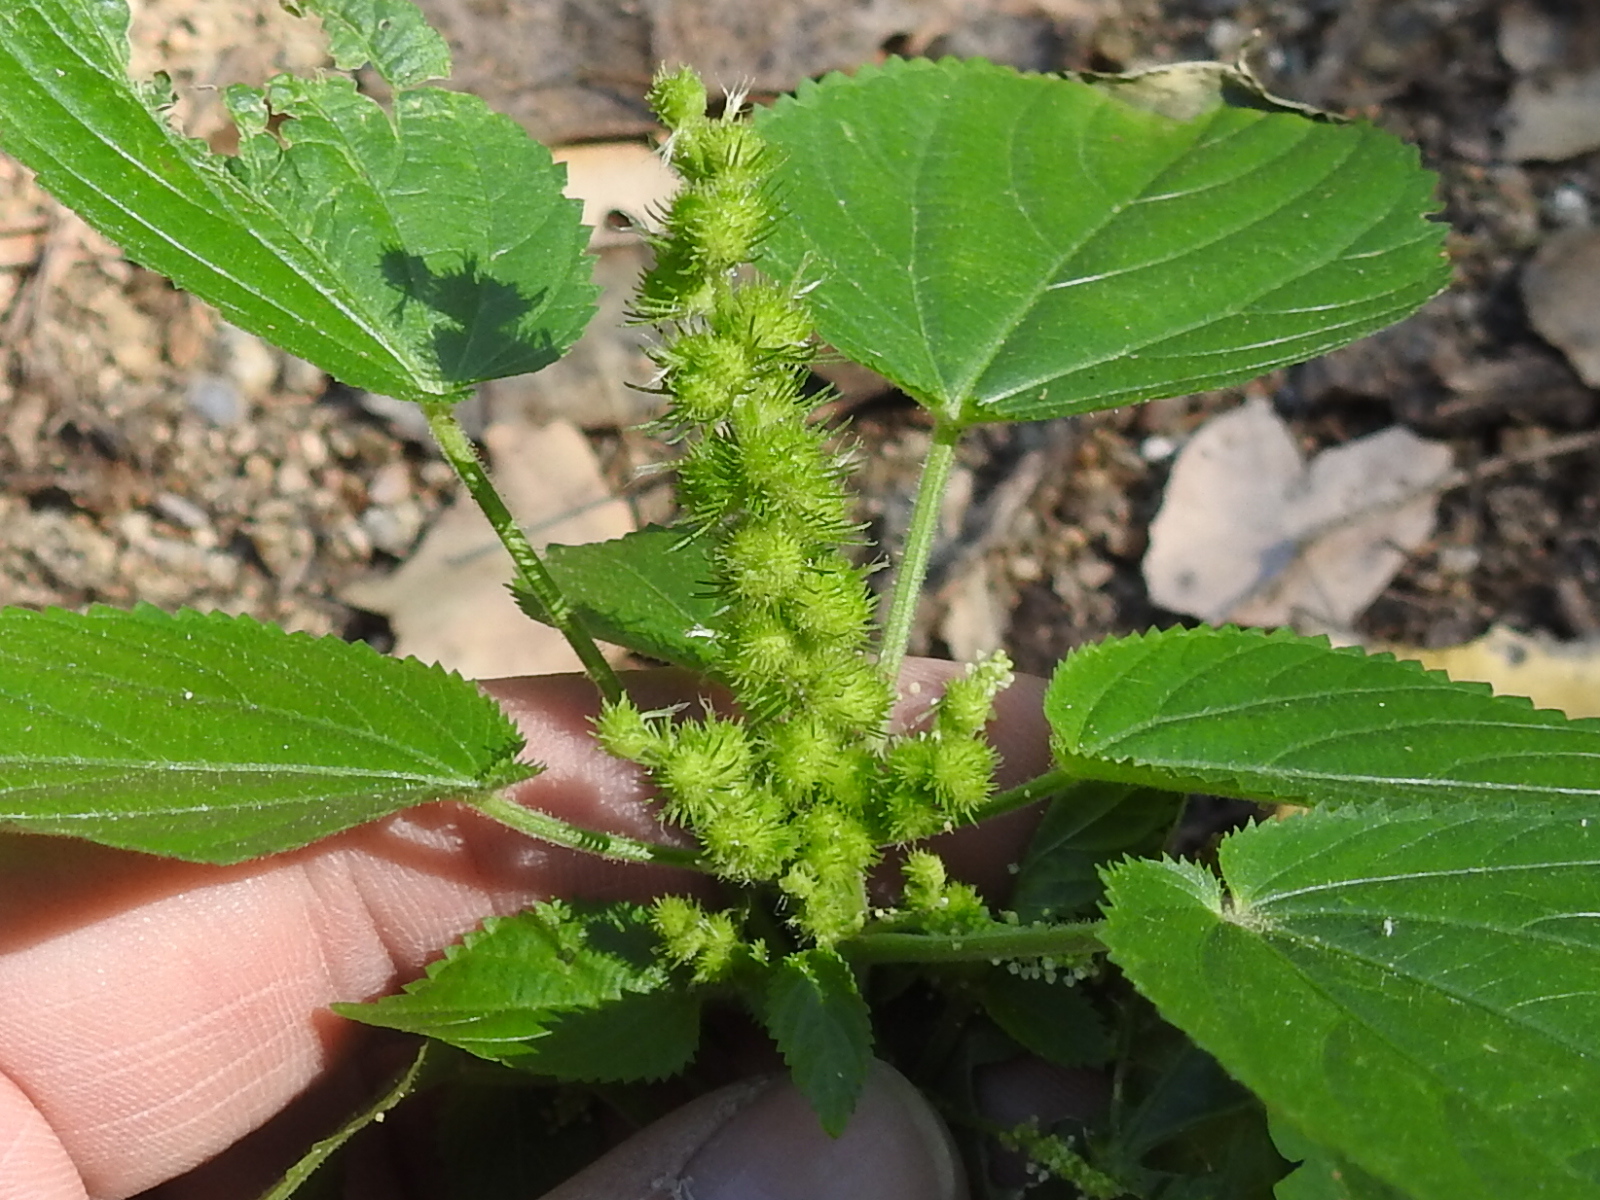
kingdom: Plantae
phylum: Tracheophyta
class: Magnoliopsida
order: Malpighiales
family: Euphorbiaceae
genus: Acalypha
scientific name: Acalypha ostryifolia
